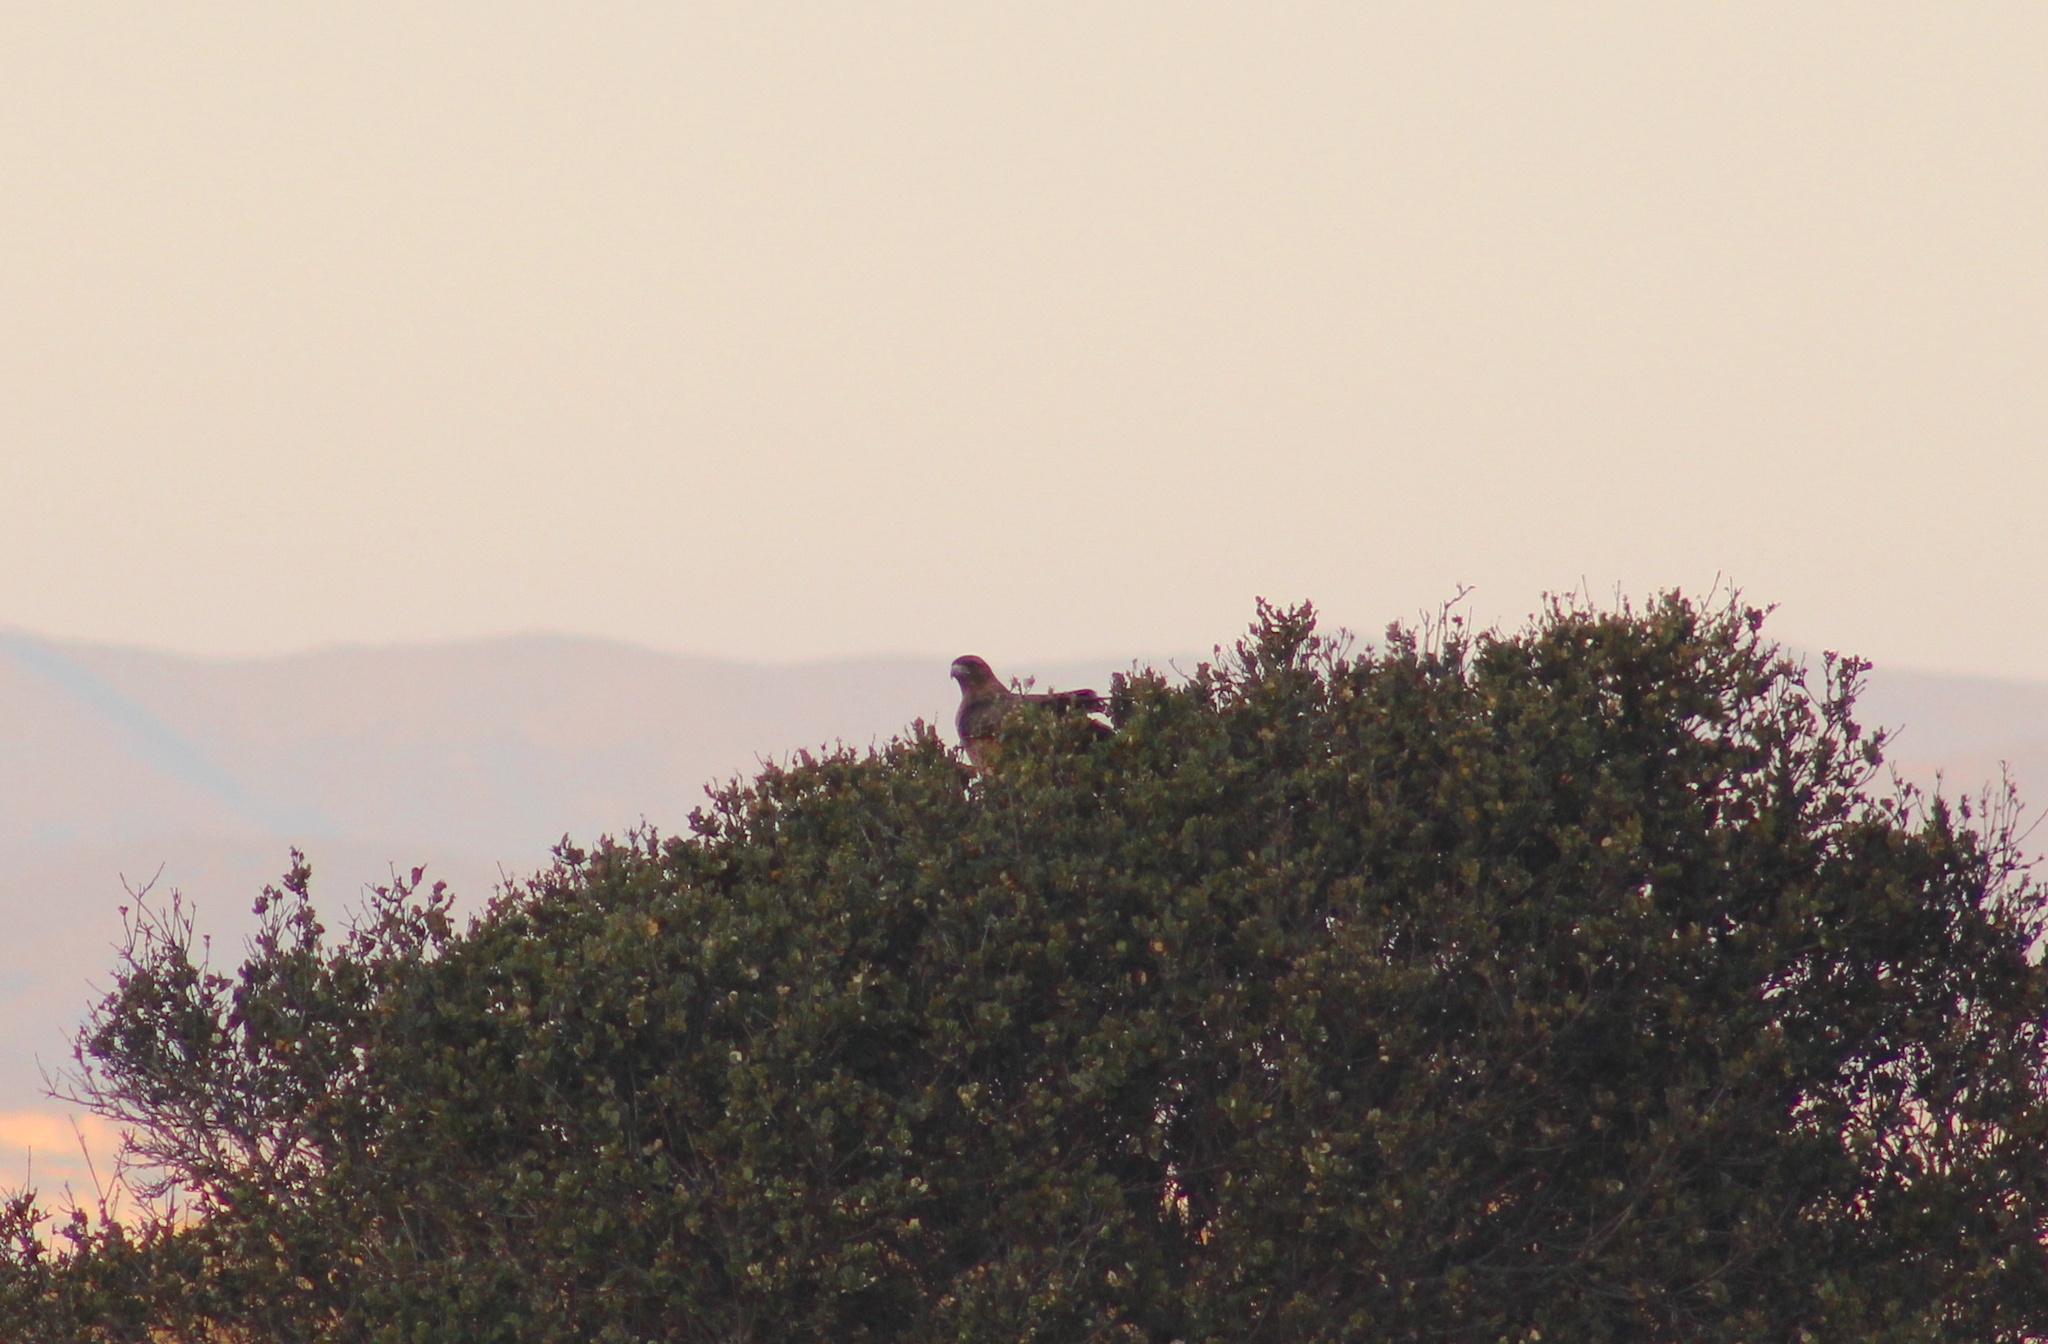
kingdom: Animalia
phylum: Chordata
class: Aves
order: Accipitriformes
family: Accipitridae
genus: Buteo
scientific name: Buteo jamaicensis
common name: Red-tailed hawk
